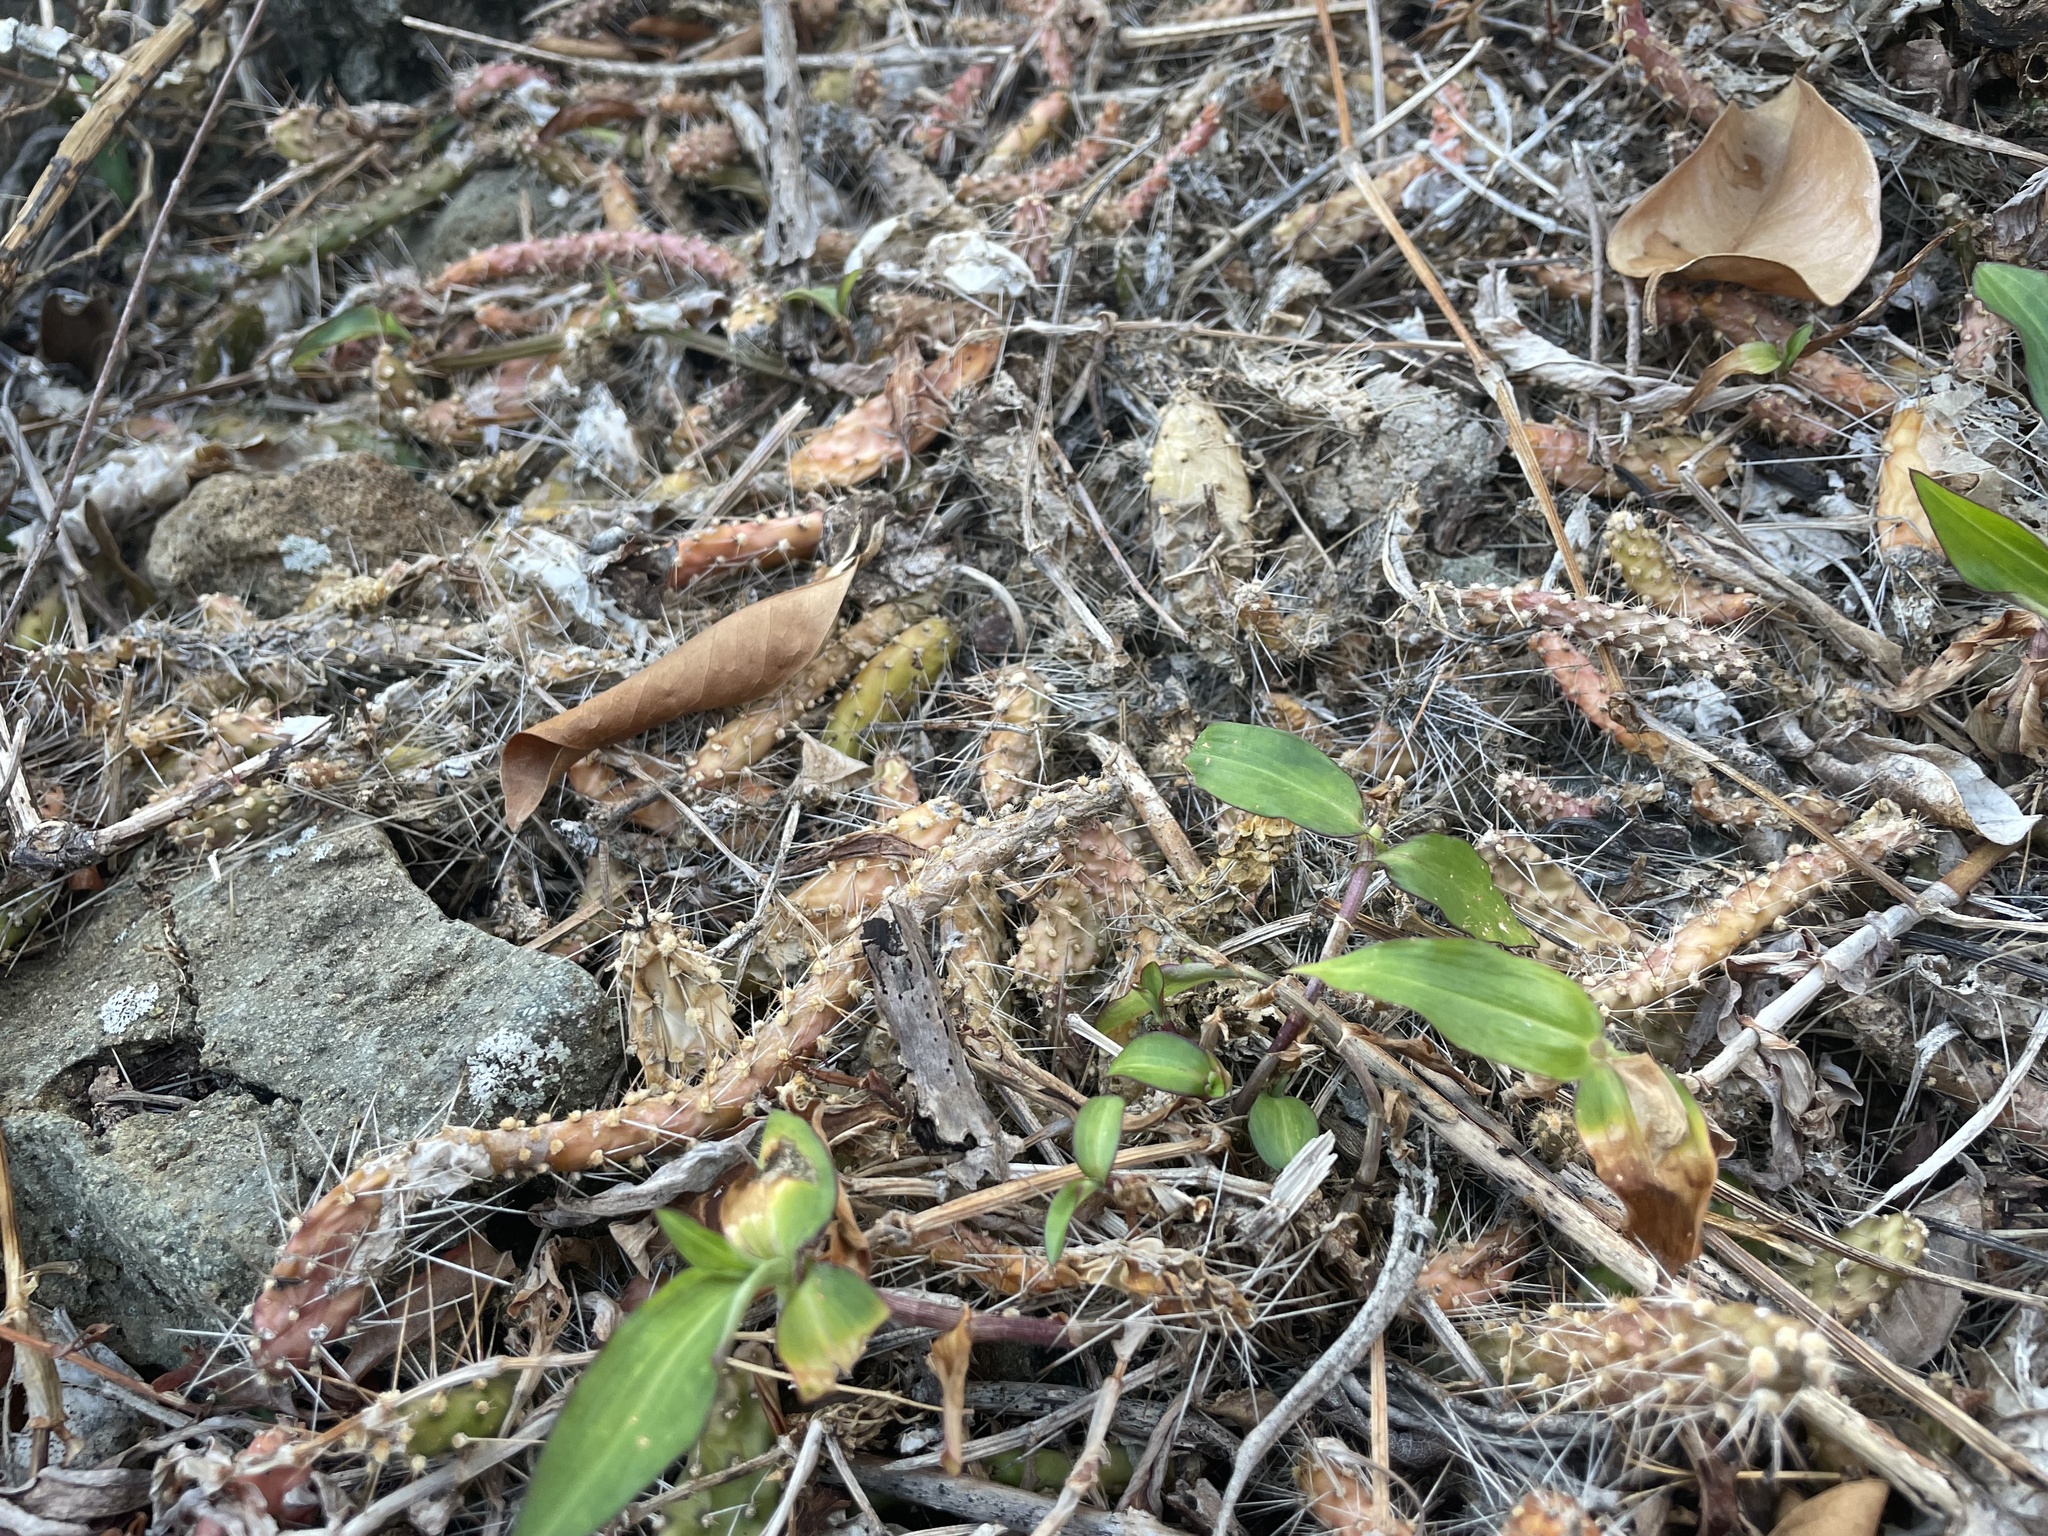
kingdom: Plantae
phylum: Tracheophyta
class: Magnoliopsida
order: Caryophyllales
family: Cactaceae
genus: Opuntia
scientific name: Opuntia repens
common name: Roving pricklypear
